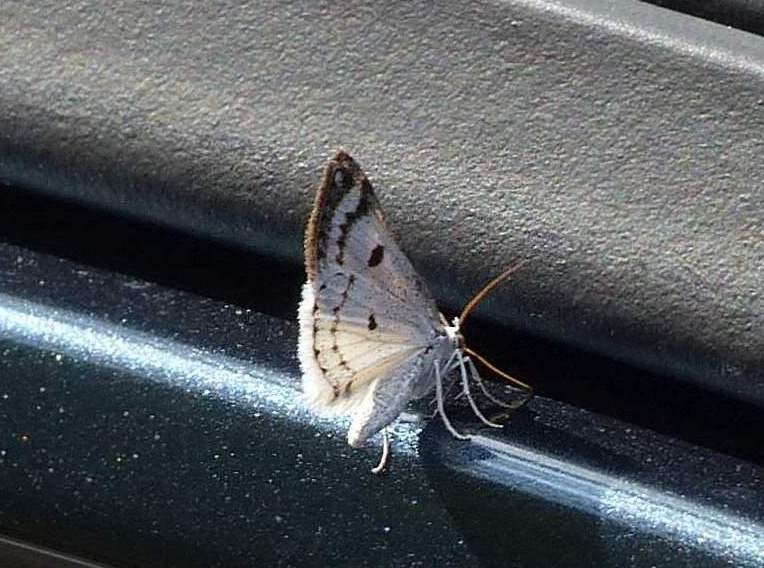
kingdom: Animalia
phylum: Arthropoda
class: Insecta
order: Lepidoptera
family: Geometridae
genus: Lomographa
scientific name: Lomographa semiclarata
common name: Bluish spring moth
